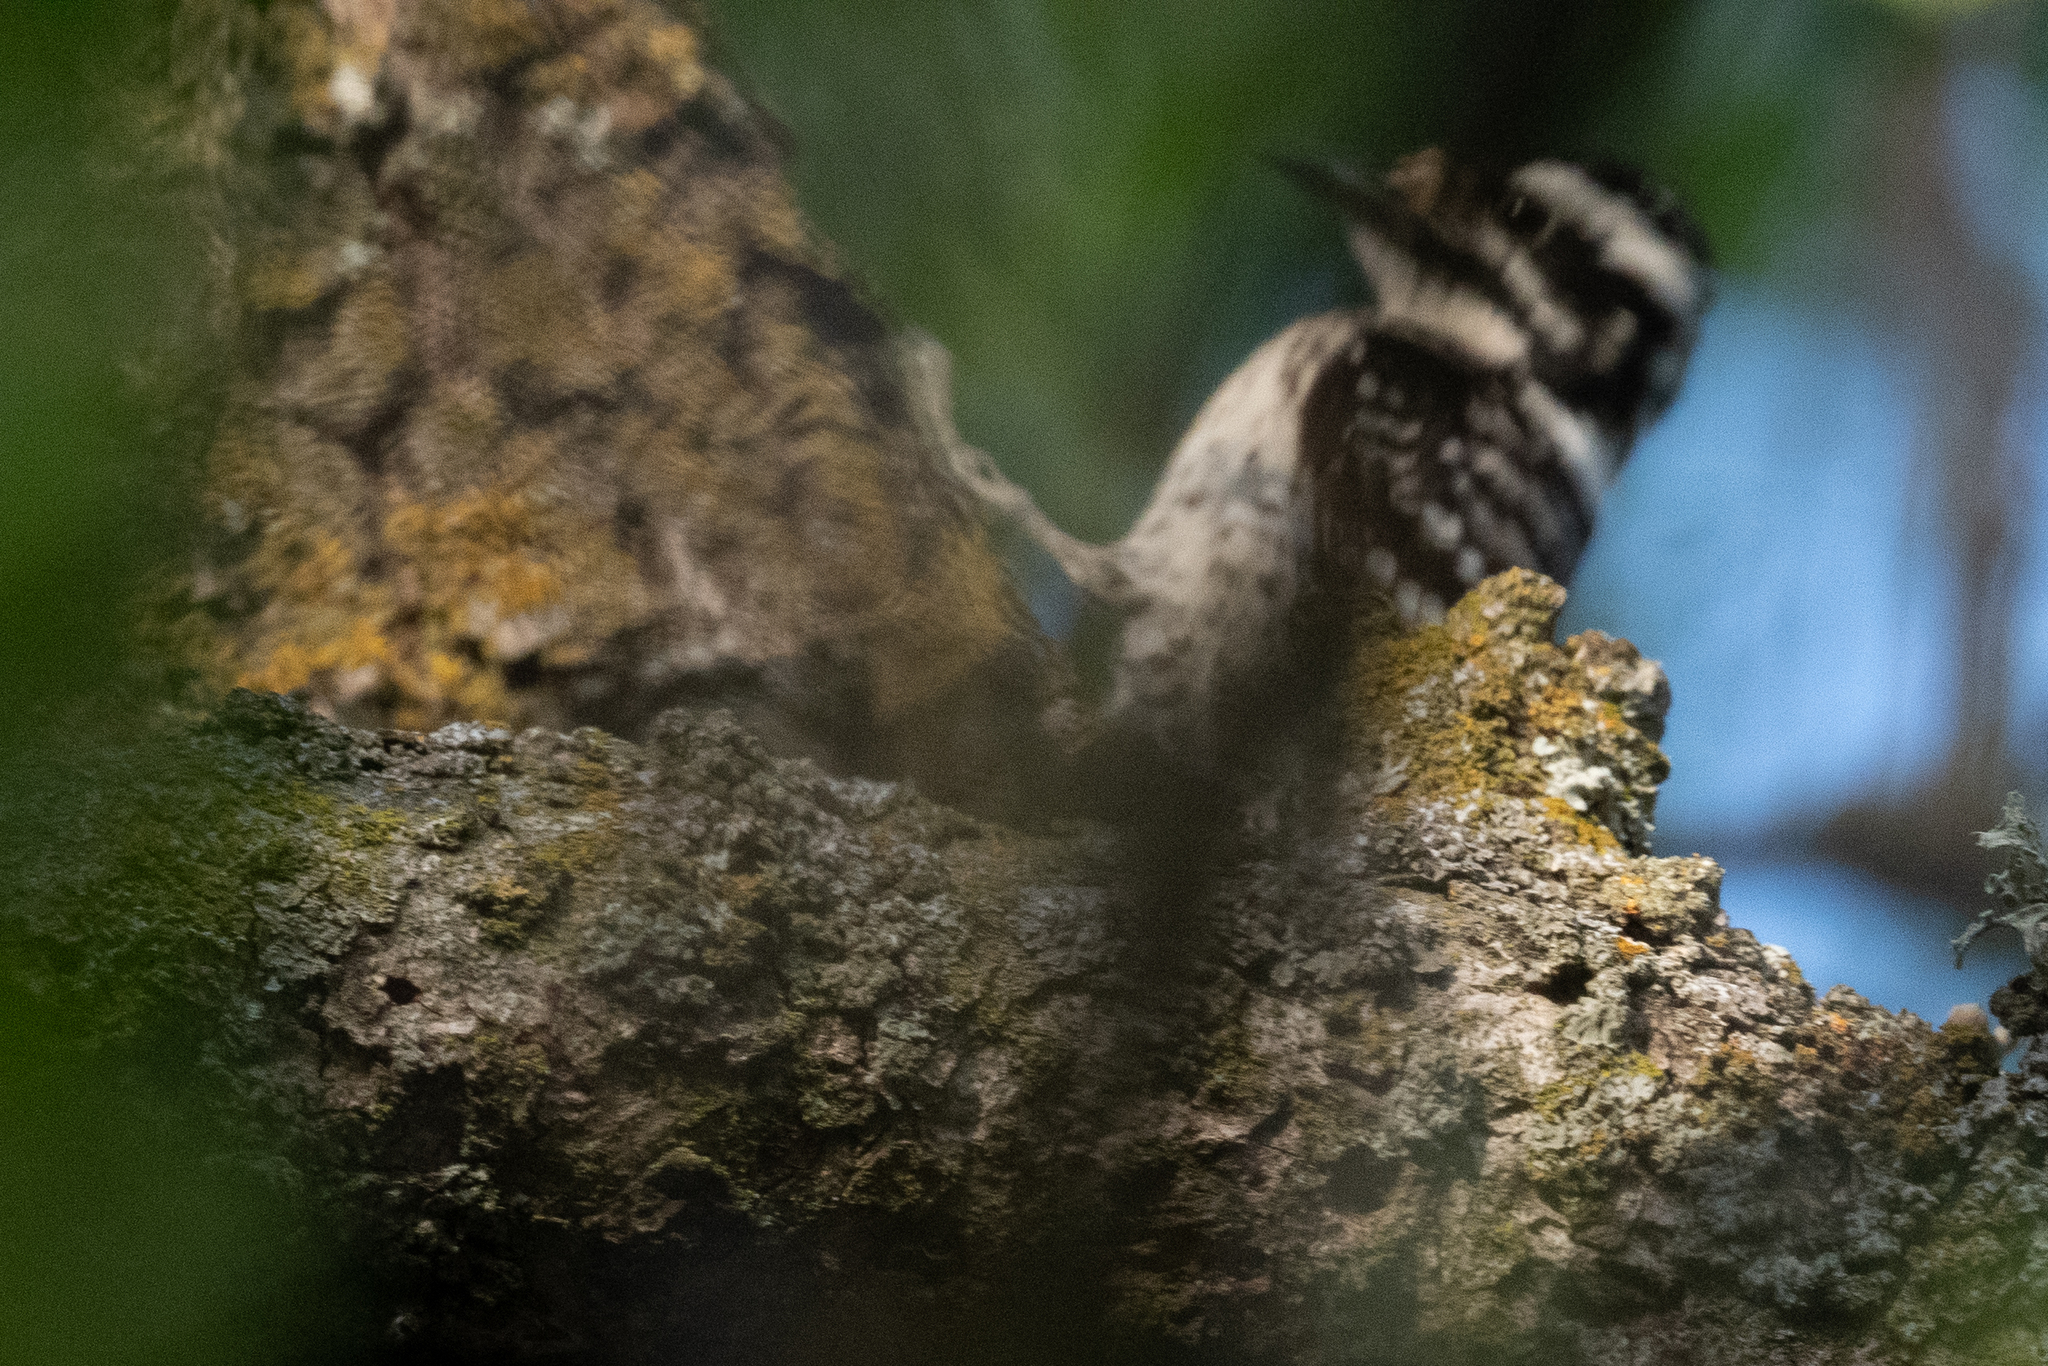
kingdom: Animalia
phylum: Chordata
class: Aves
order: Piciformes
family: Picidae
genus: Dryobates
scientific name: Dryobates nuttallii
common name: Nuttall's woodpecker
